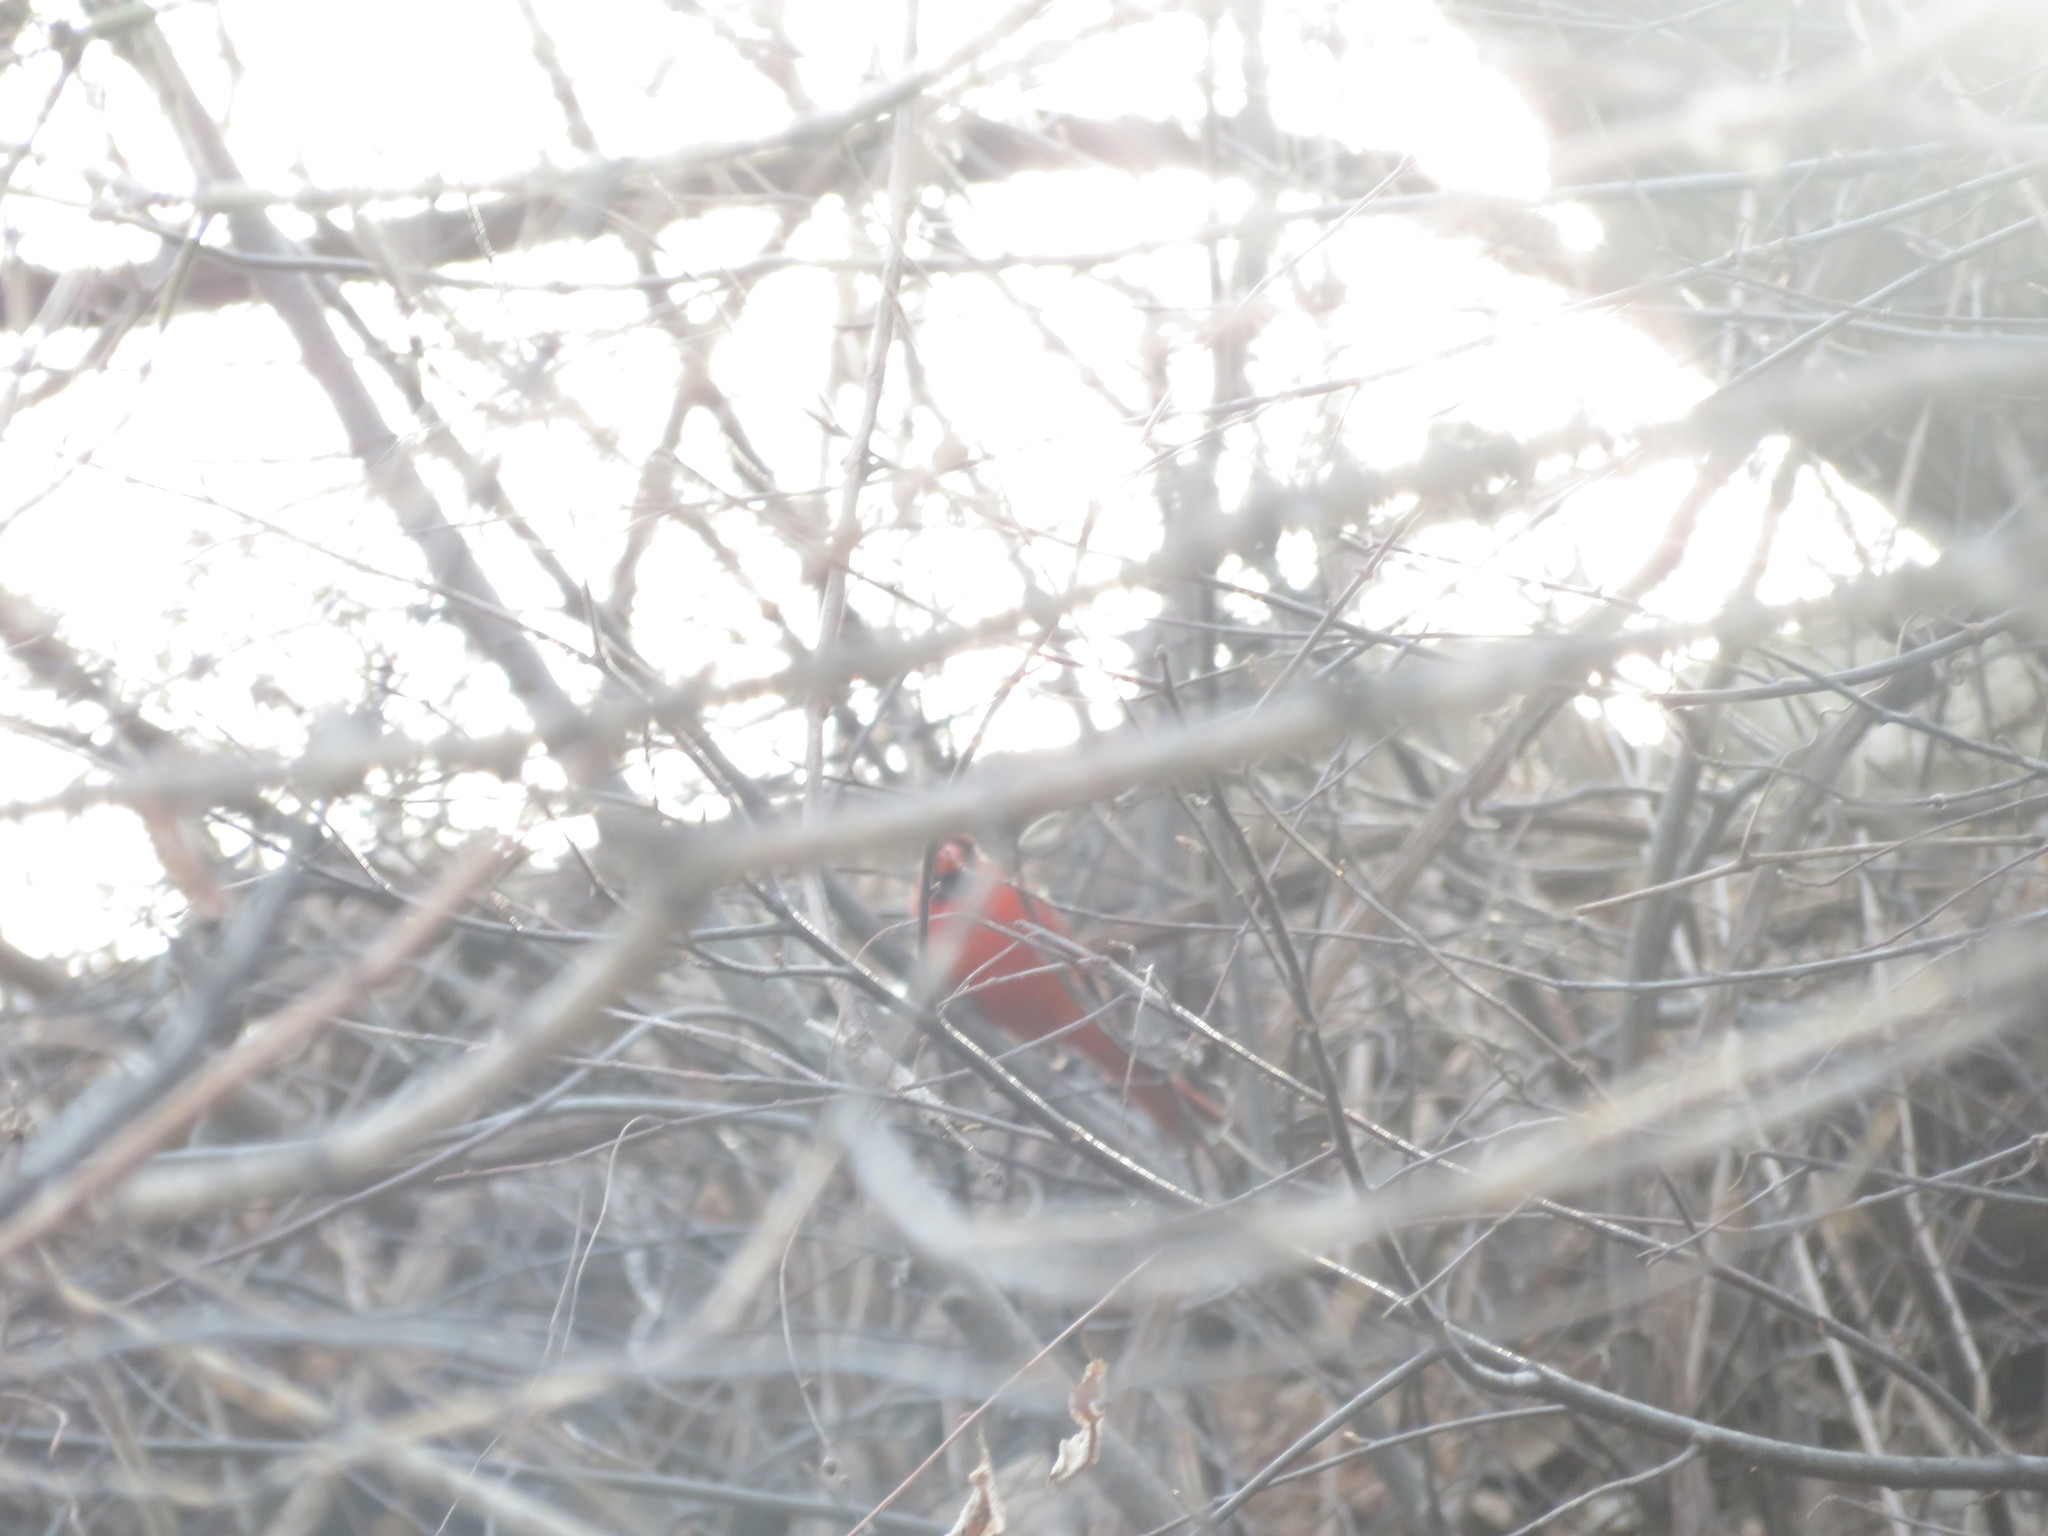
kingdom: Animalia
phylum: Chordata
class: Aves
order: Passeriformes
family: Cardinalidae
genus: Cardinalis
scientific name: Cardinalis cardinalis
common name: Northern cardinal
